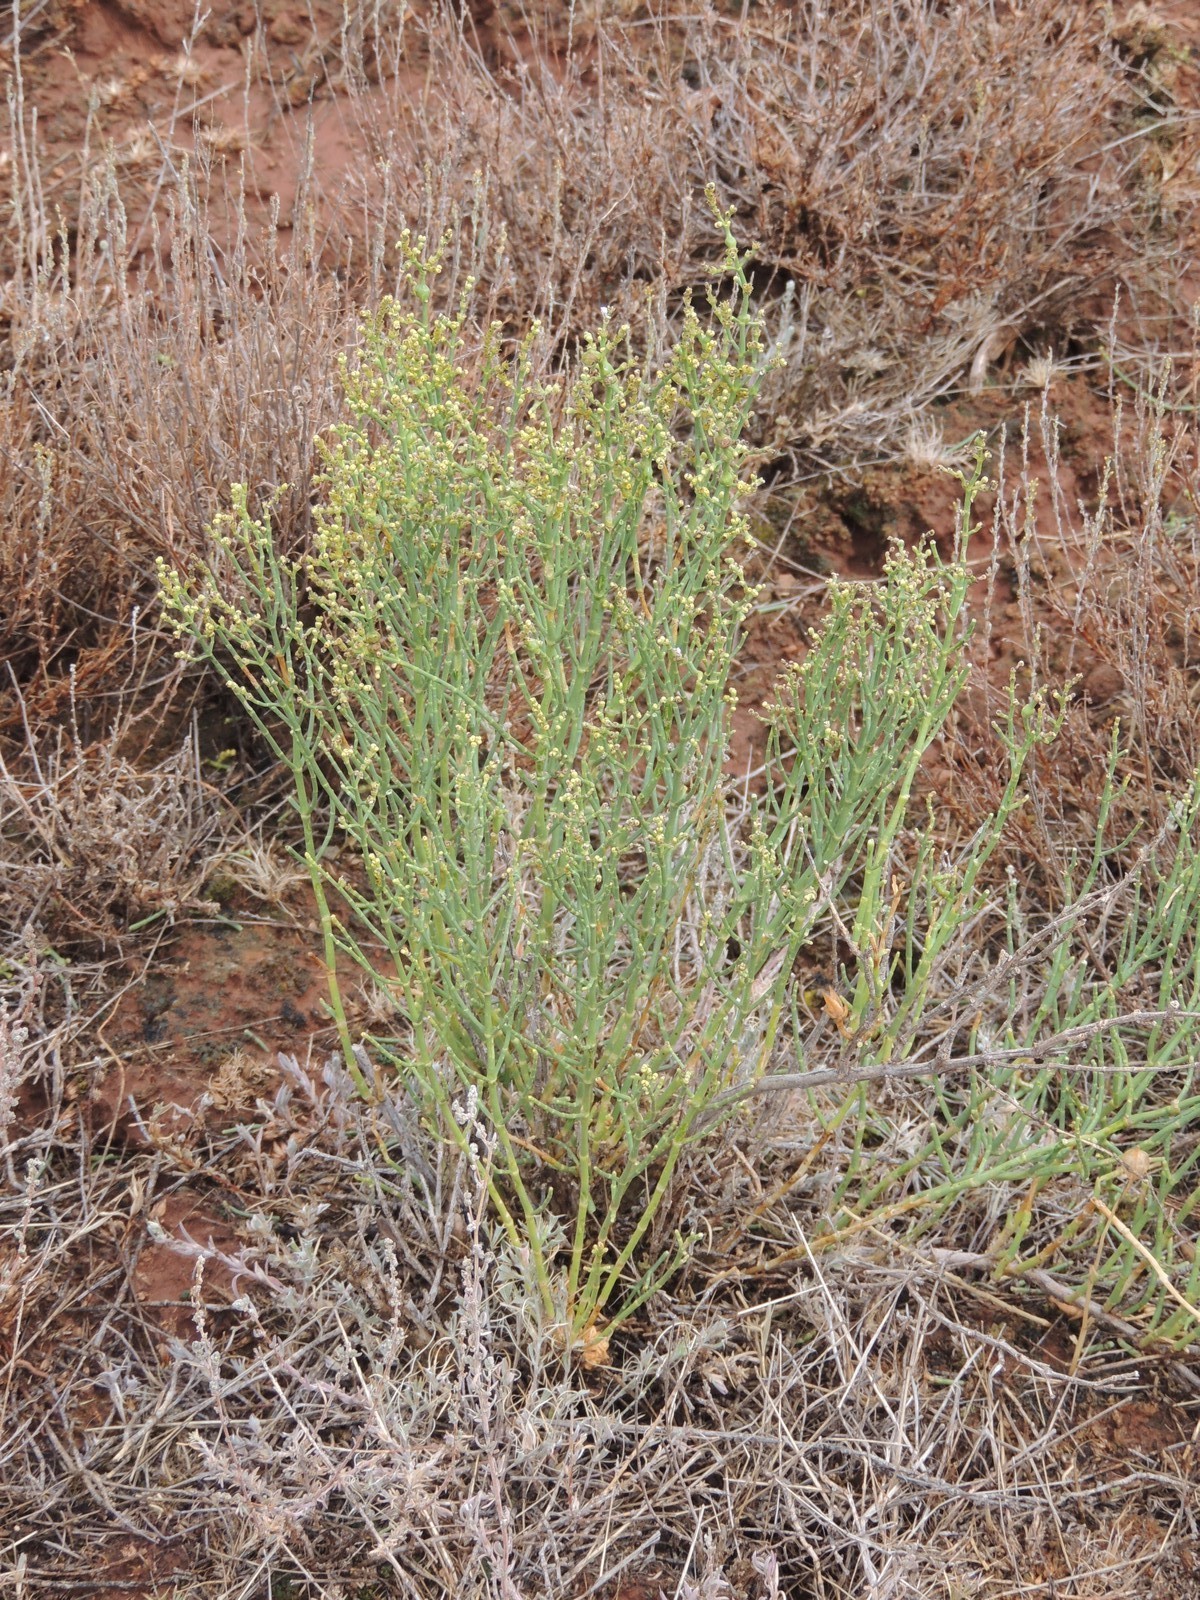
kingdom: Plantae
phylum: Tracheophyta
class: Magnoliopsida
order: Caryophyllales
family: Amaranthaceae
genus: Anabasis
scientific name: Anabasis aphylla
